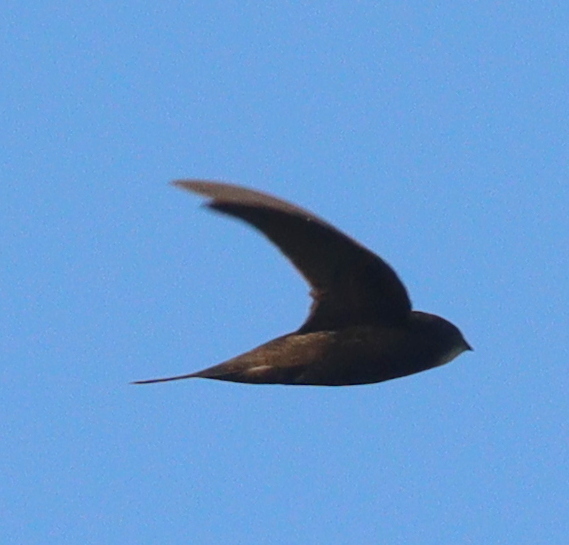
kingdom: Animalia
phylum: Chordata
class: Aves
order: Apodiformes
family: Apodidae
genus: Apus
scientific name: Apus apus
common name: Common swift
